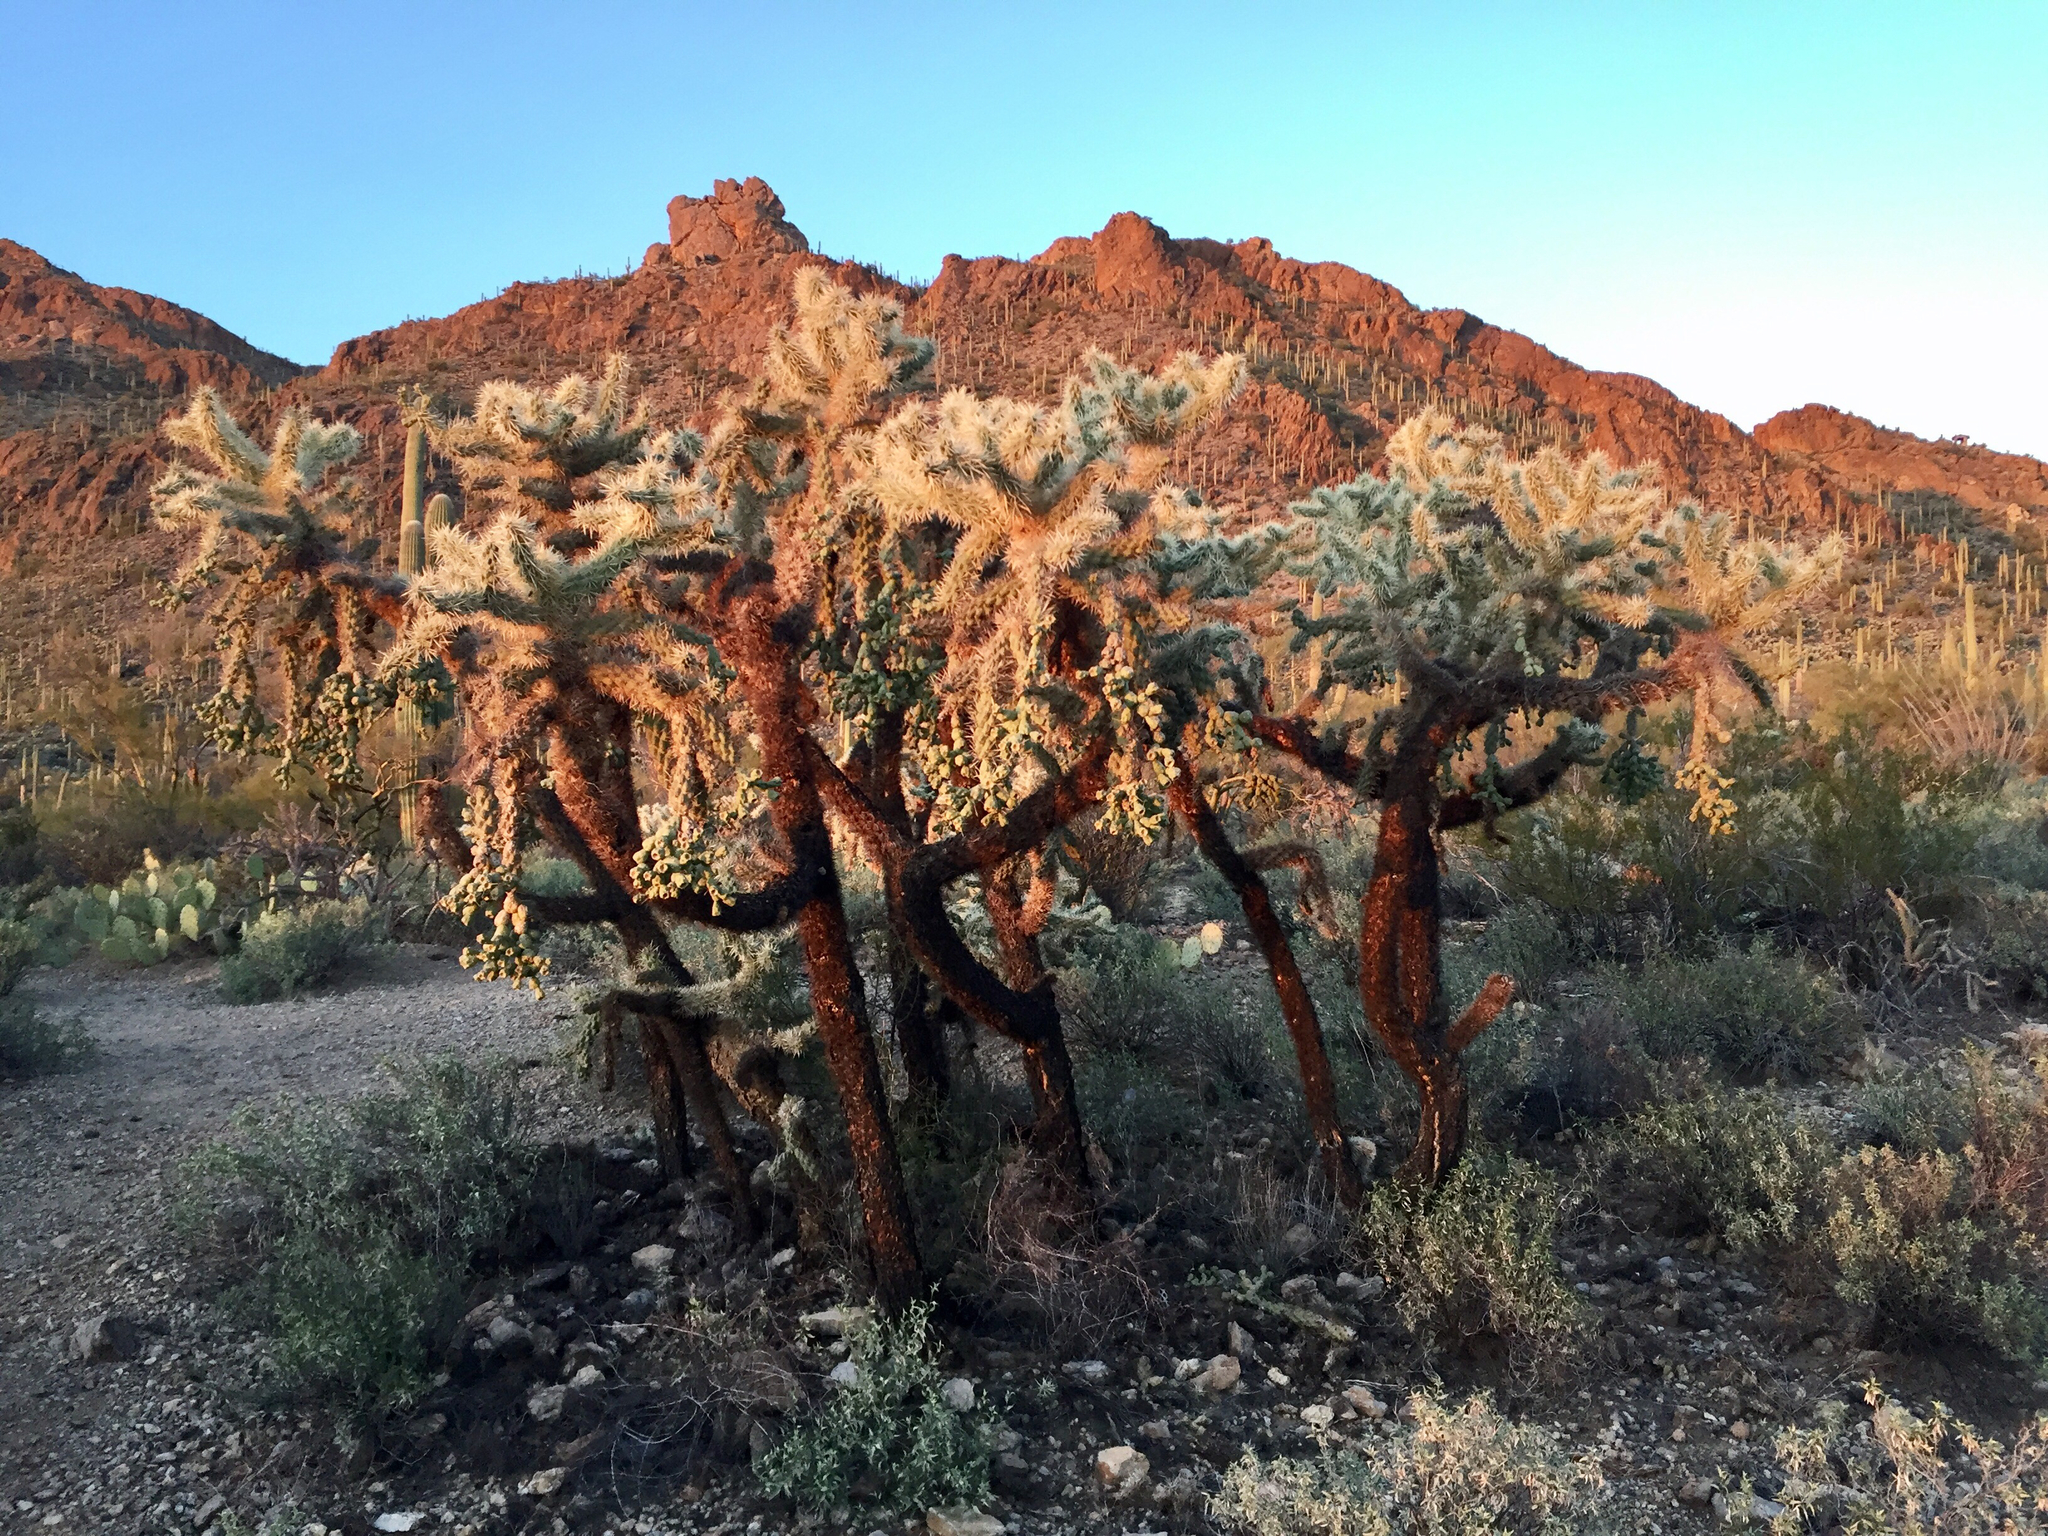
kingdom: Plantae
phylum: Tracheophyta
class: Magnoliopsida
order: Caryophyllales
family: Cactaceae
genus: Cylindropuntia
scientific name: Cylindropuntia fulgida
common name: Jumping cholla
